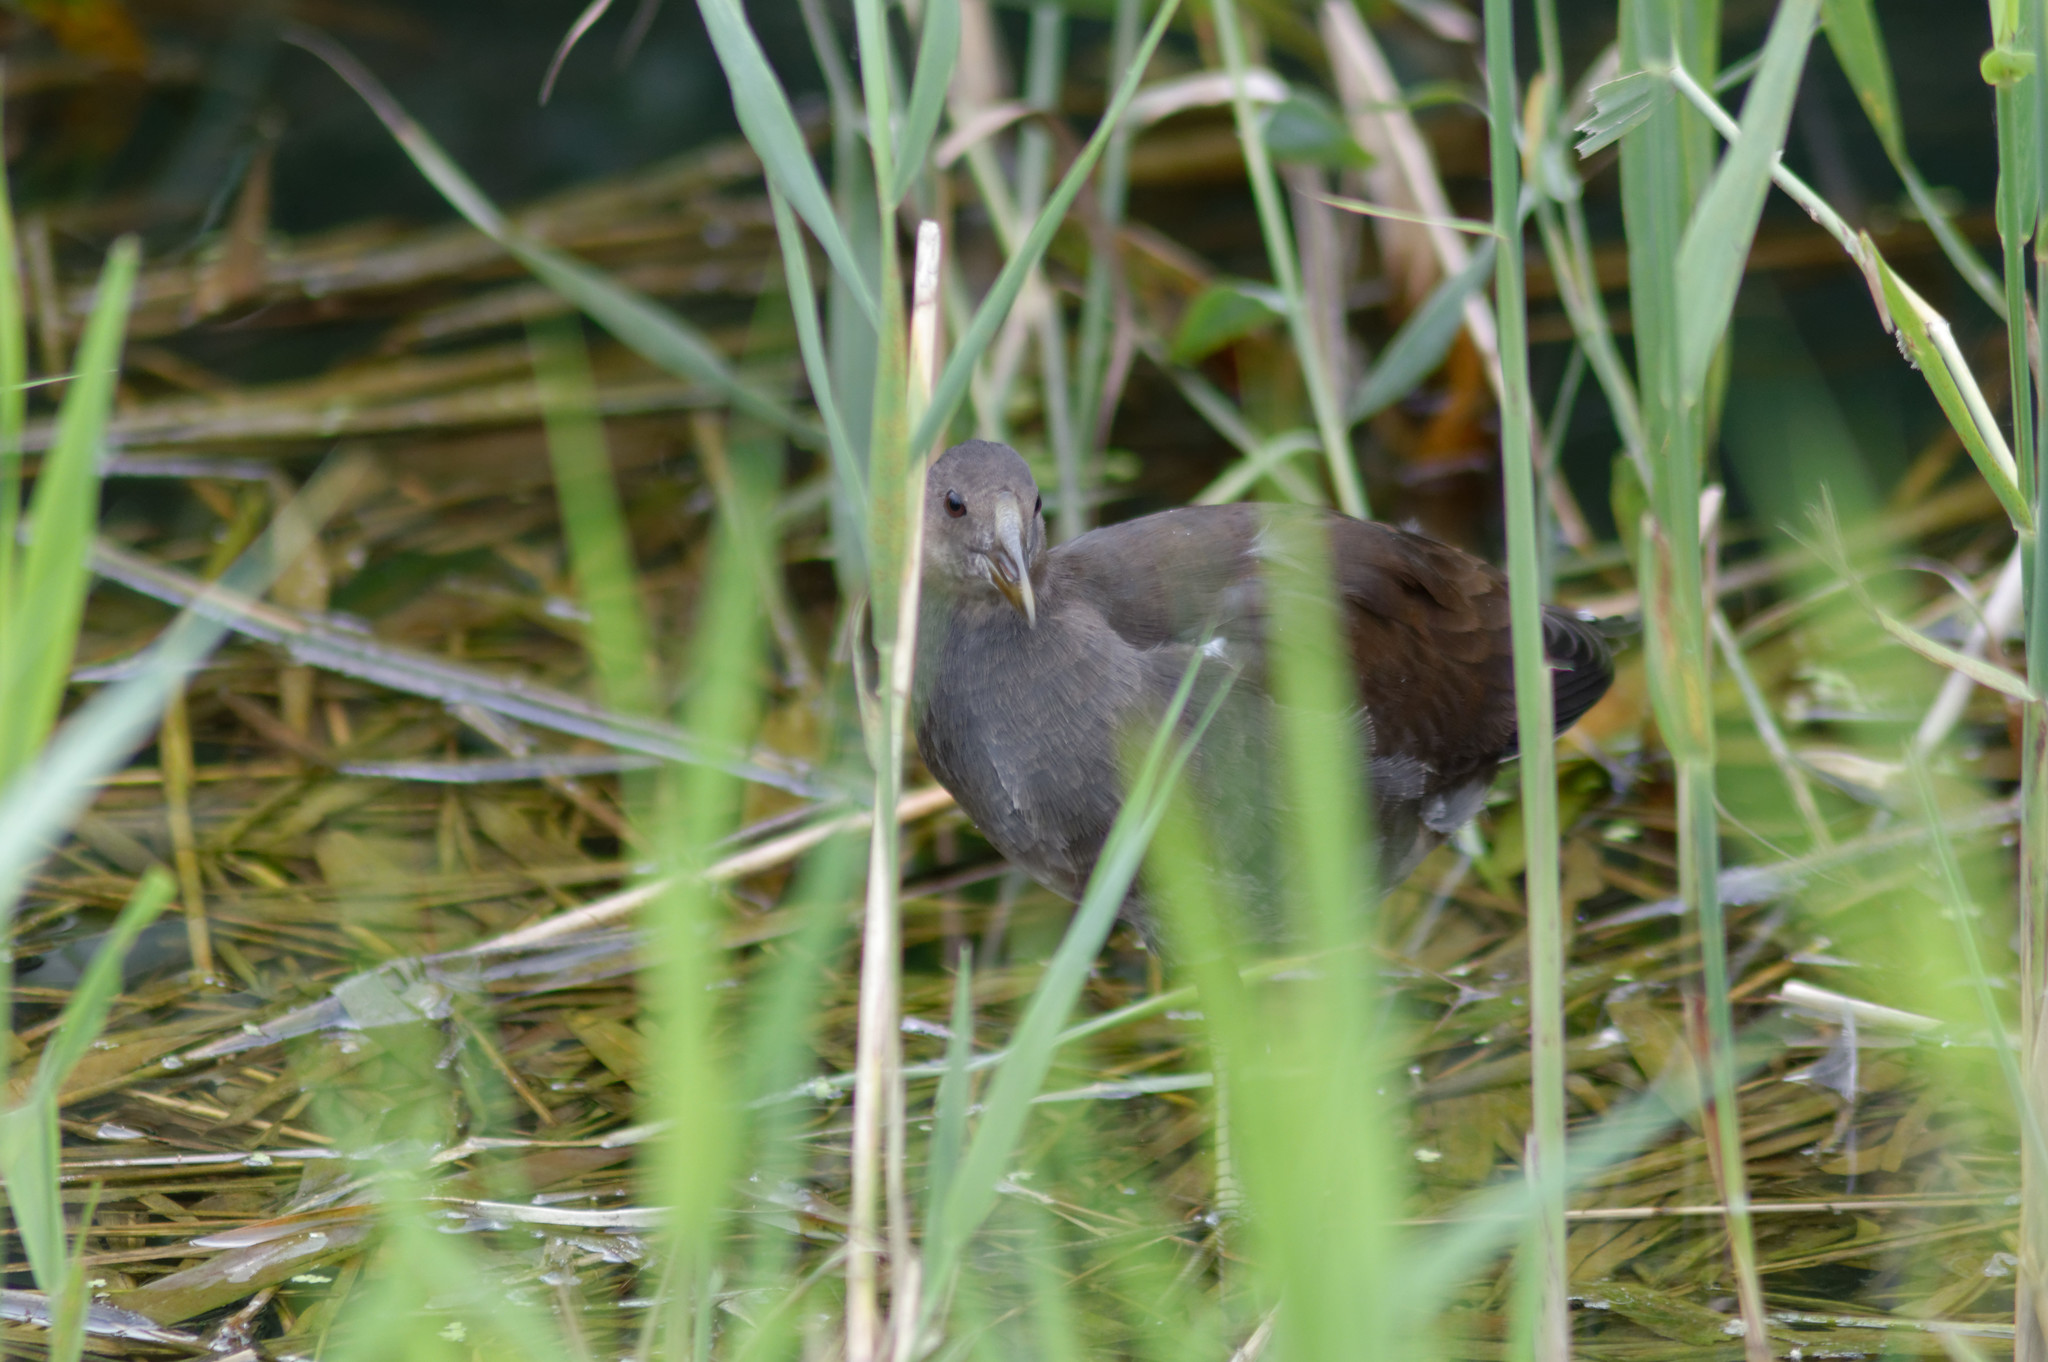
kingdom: Animalia
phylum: Chordata
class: Aves
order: Gruiformes
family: Rallidae
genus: Gallinula
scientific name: Gallinula chloropus
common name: Common moorhen
